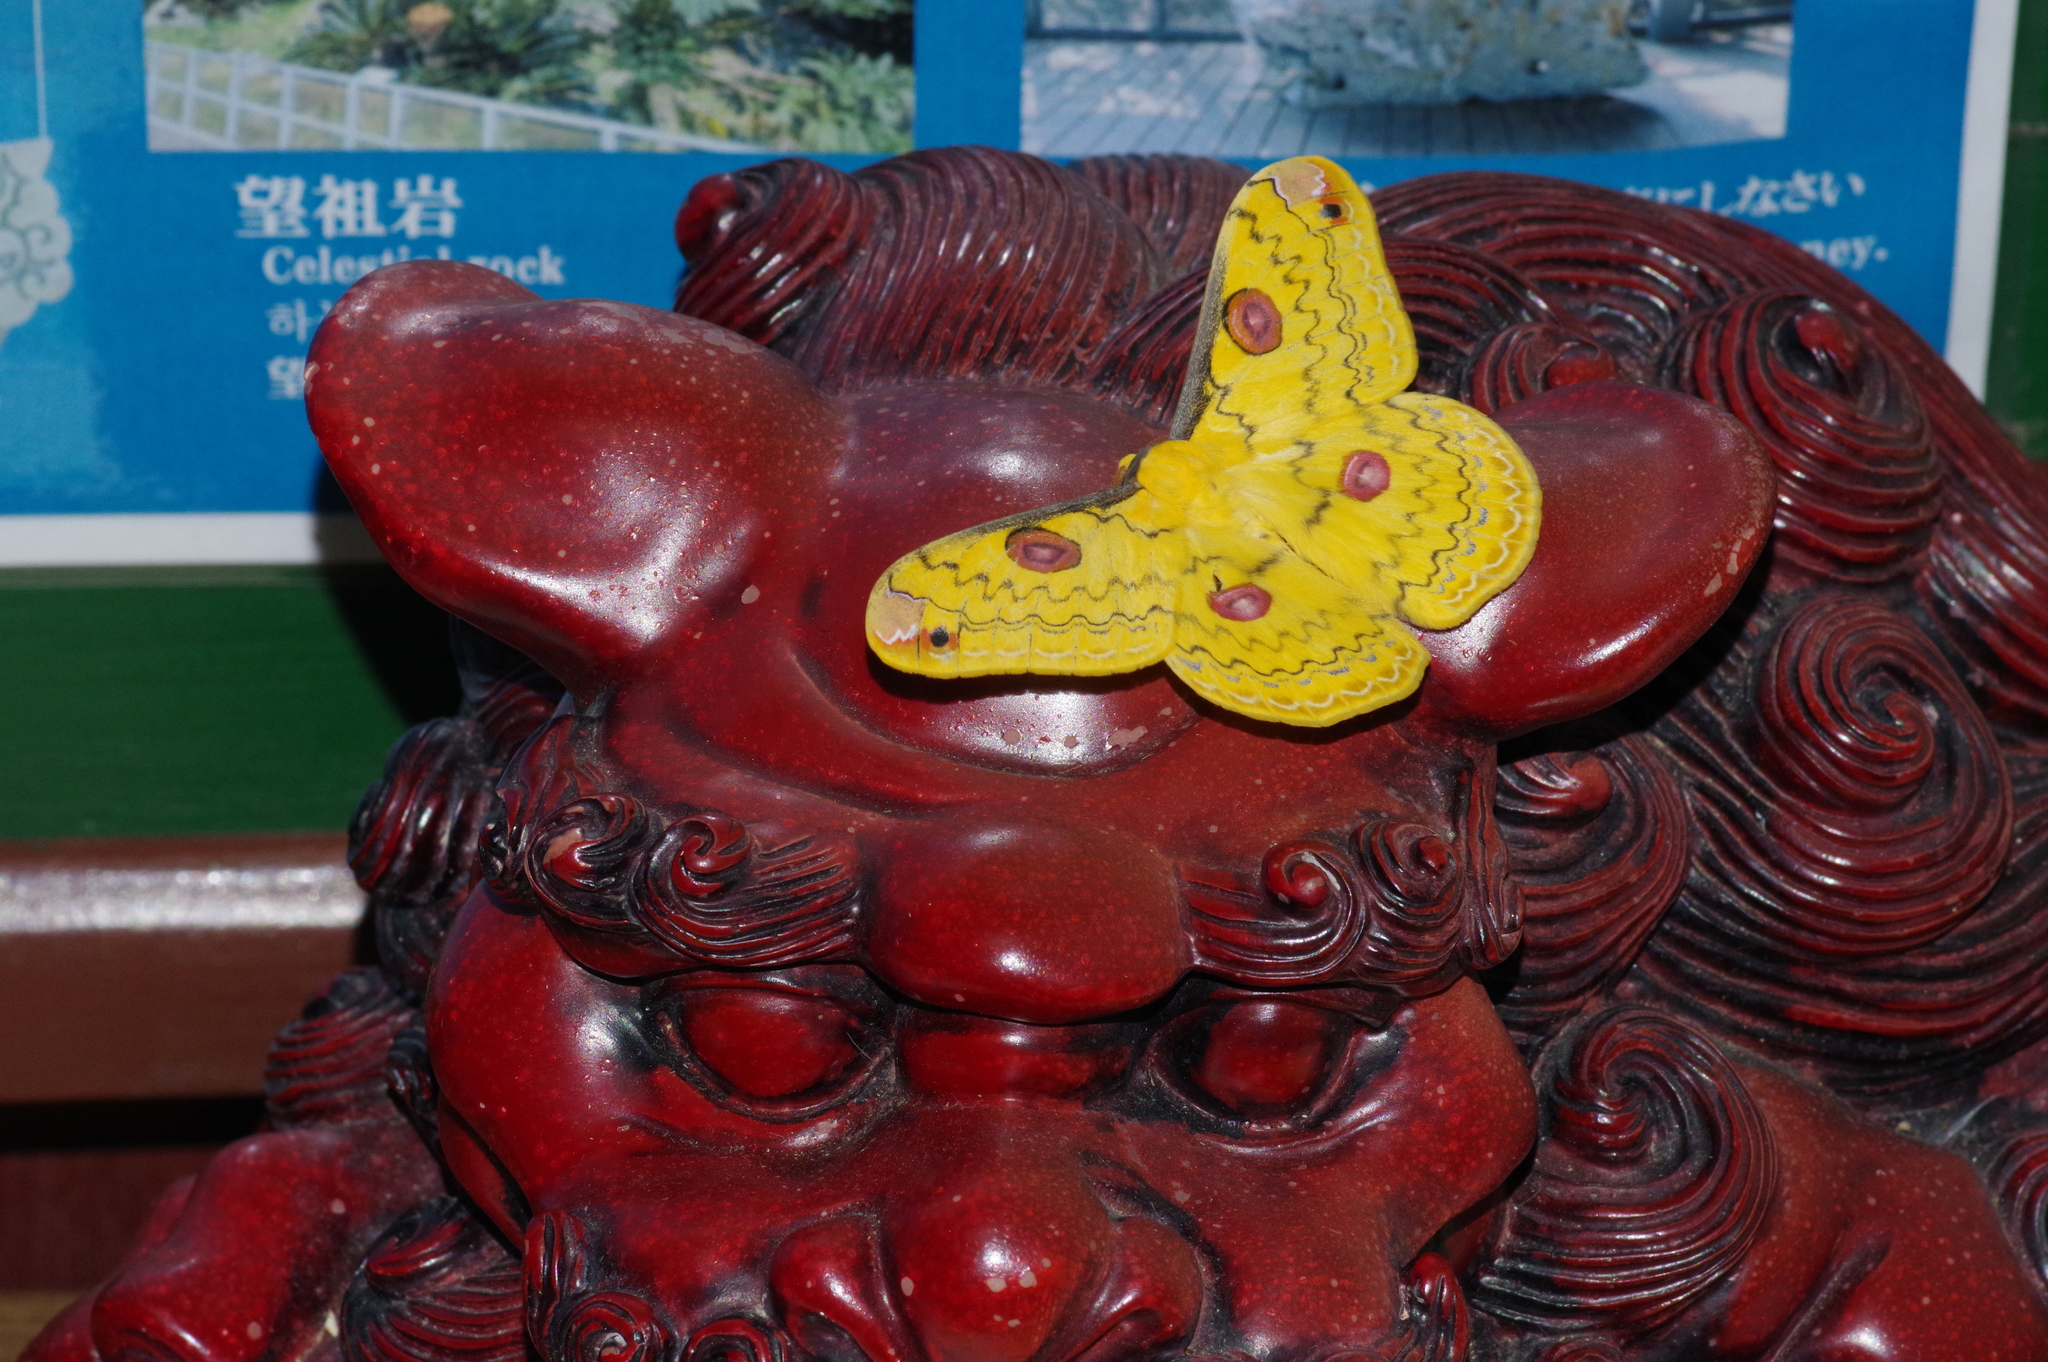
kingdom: Animalia
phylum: Arthropoda
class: Insecta
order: Lepidoptera
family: Saturniidae
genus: Loepa
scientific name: Loepa sakaei
